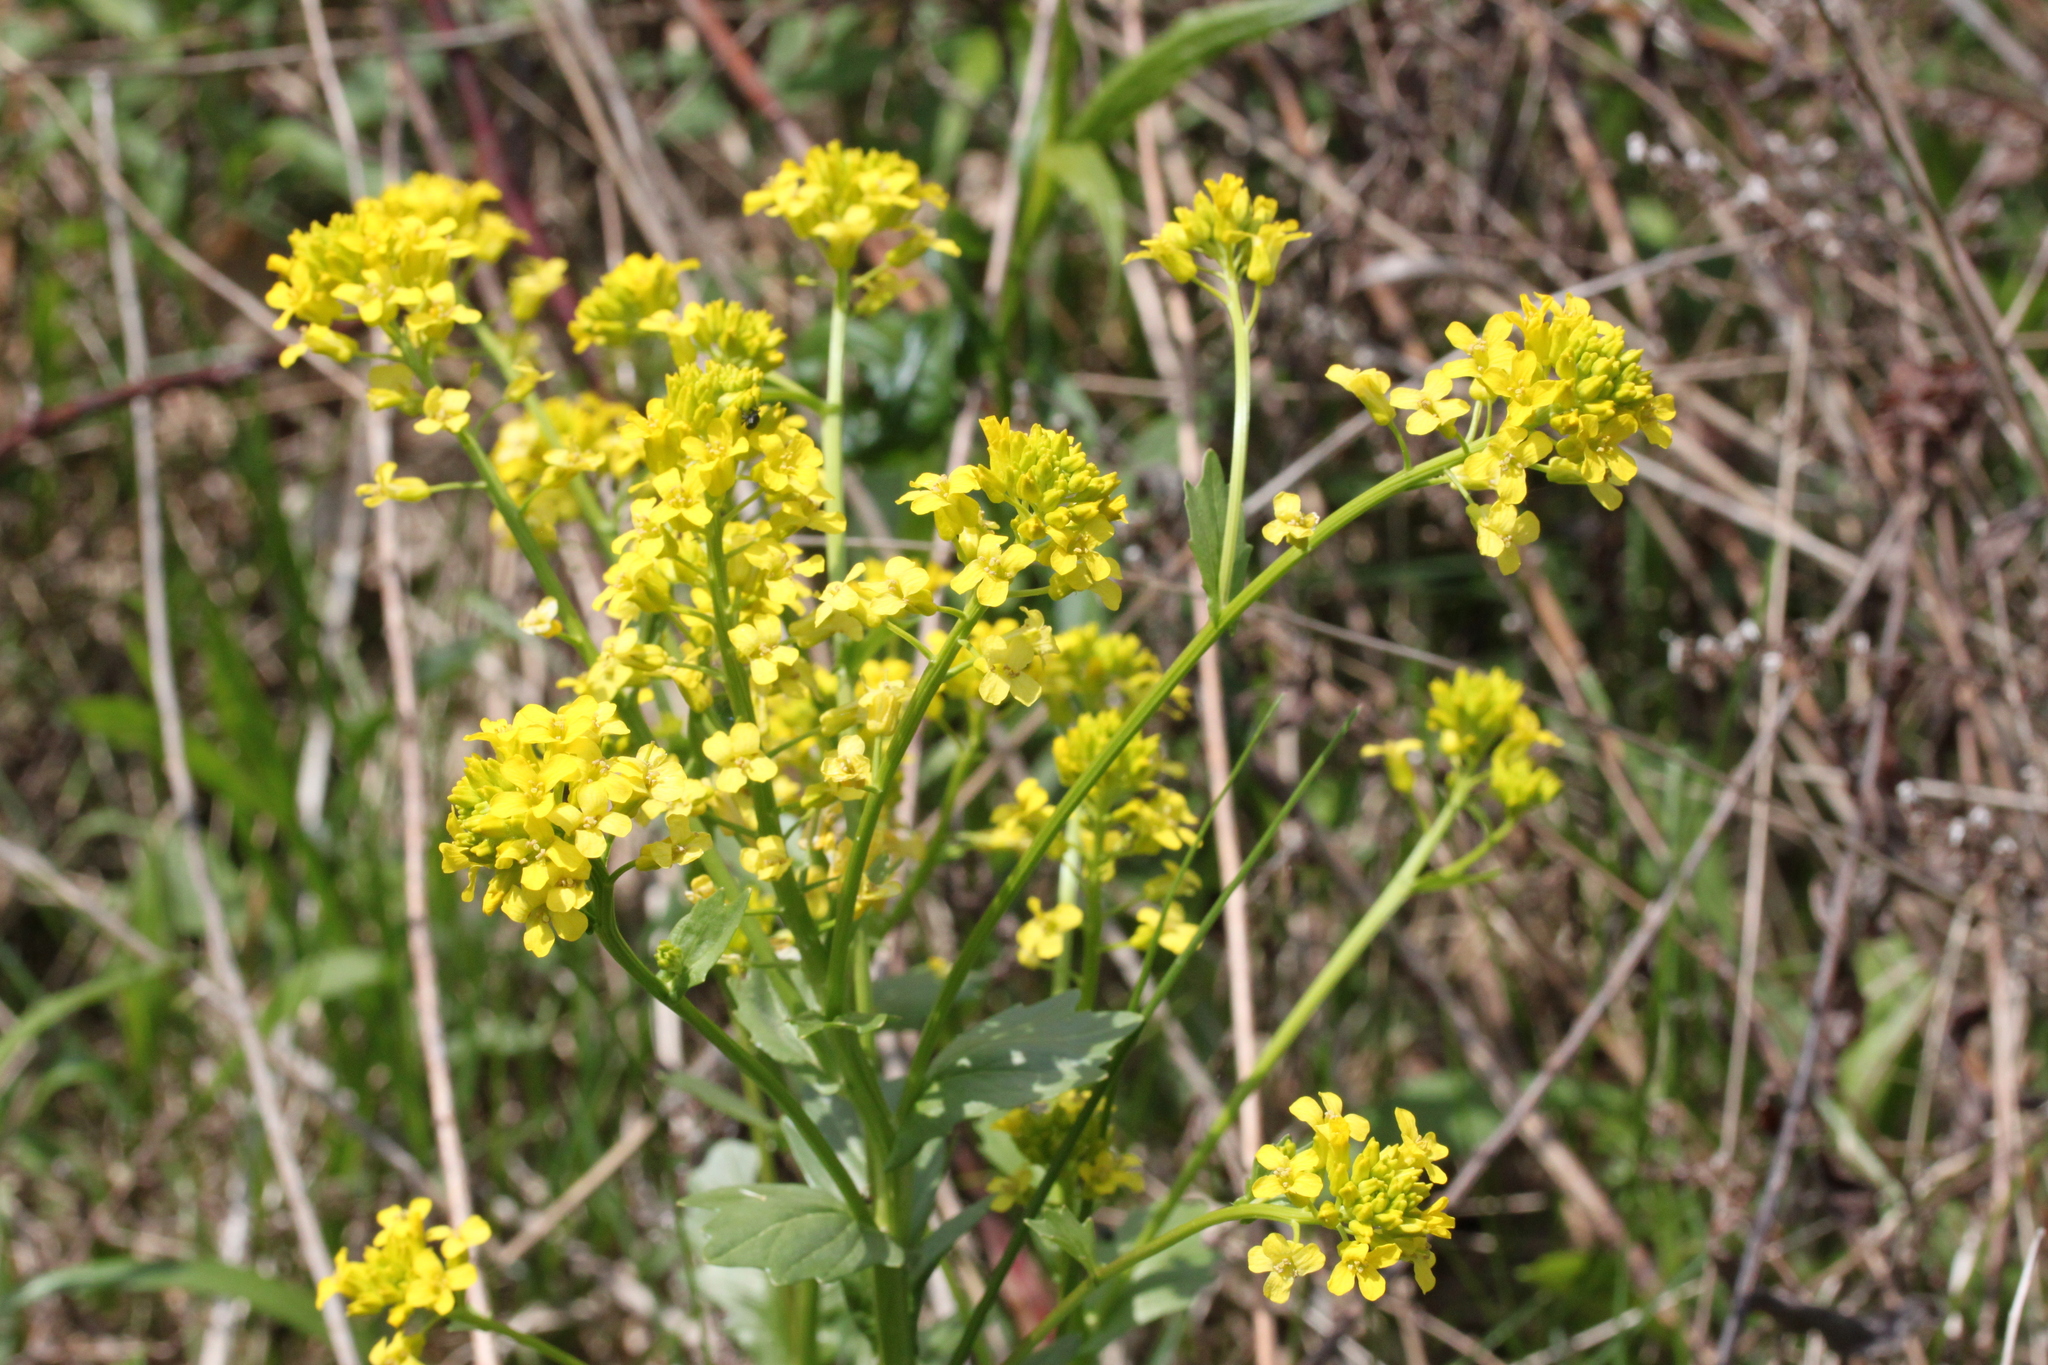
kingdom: Plantae
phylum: Tracheophyta
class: Magnoliopsida
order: Brassicales
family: Brassicaceae
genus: Barbarea
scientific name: Barbarea vulgaris
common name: Cressy-greens
